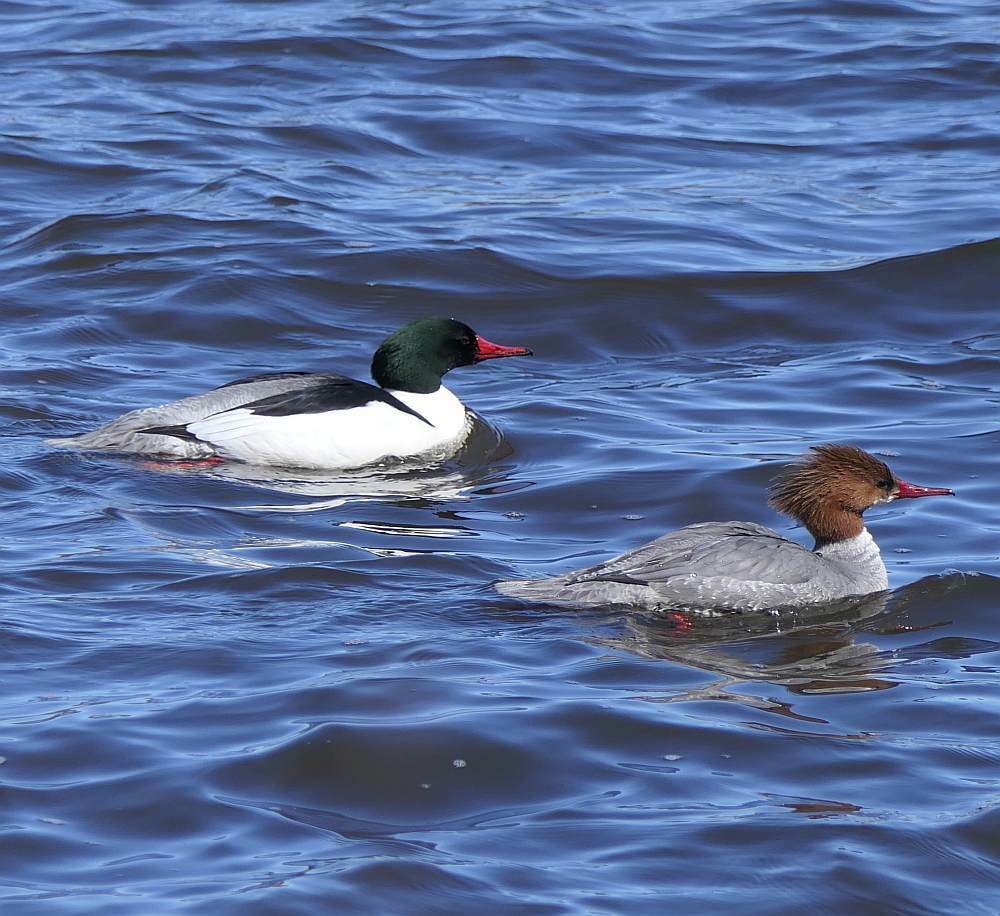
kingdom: Animalia
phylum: Chordata
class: Aves
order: Anseriformes
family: Anatidae
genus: Mergus
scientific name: Mergus merganser
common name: Common merganser
